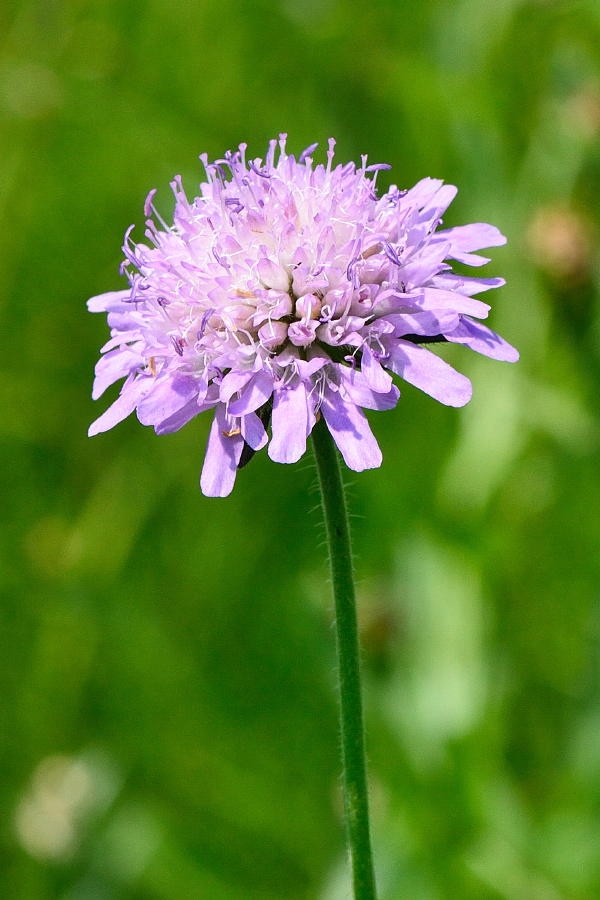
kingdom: Plantae
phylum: Tracheophyta
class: Magnoliopsida
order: Dipsacales
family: Caprifoliaceae
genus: Knautia
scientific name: Knautia arvensis
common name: Field scabiosa
